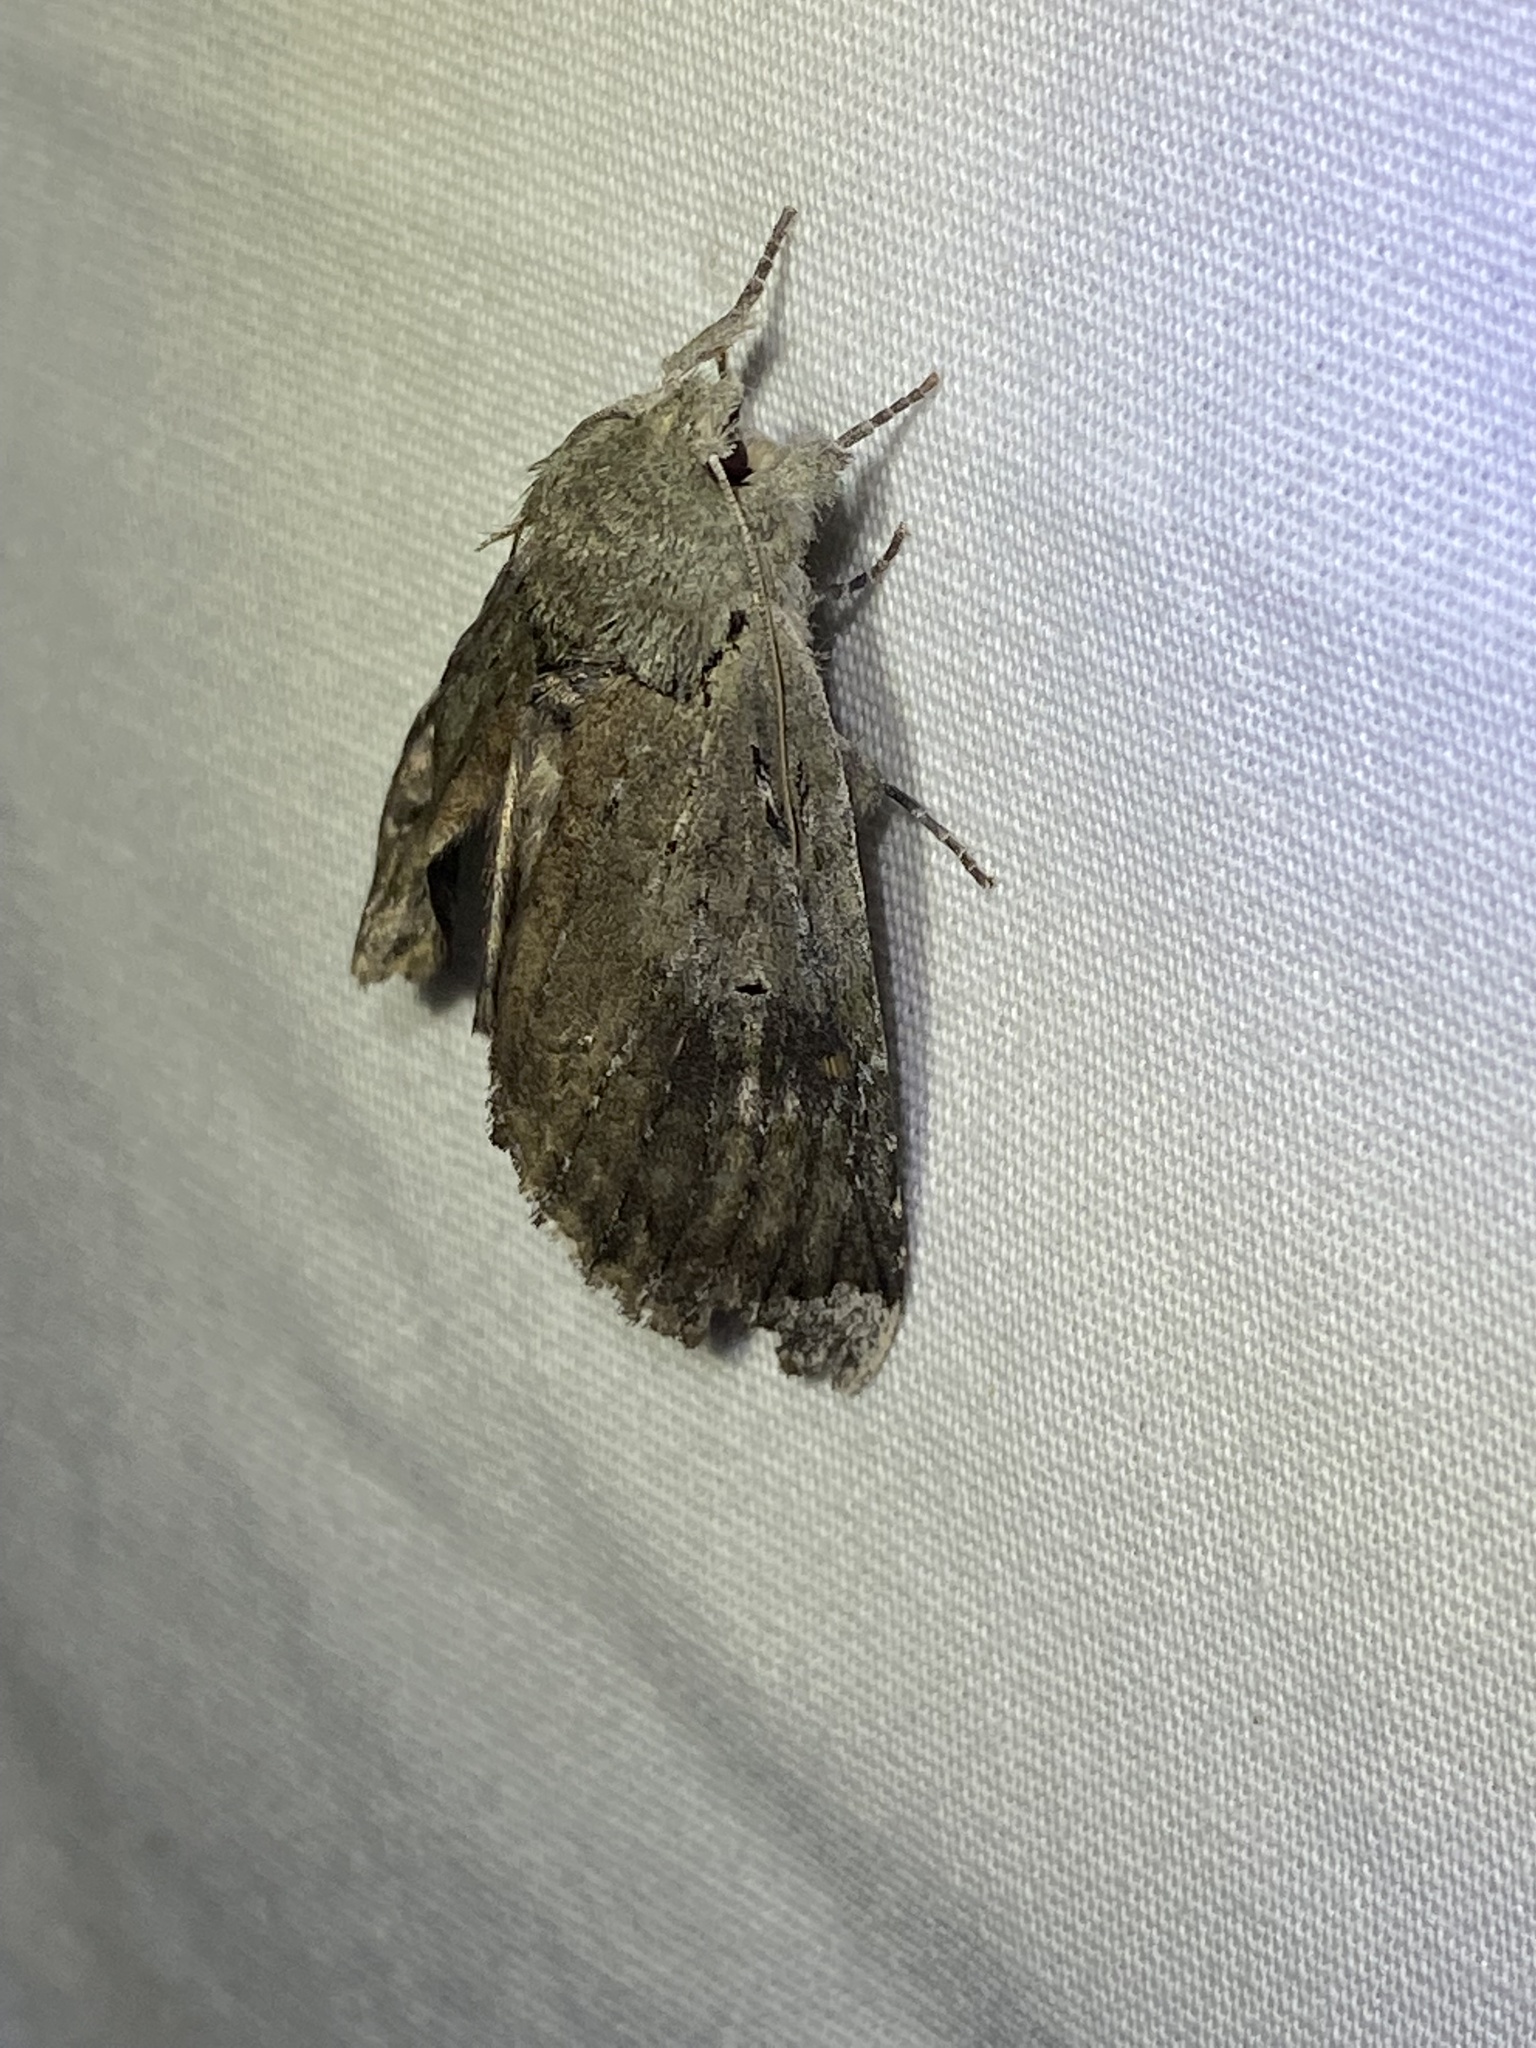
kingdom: Animalia
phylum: Arthropoda
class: Insecta
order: Lepidoptera
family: Notodontidae
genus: Schizura
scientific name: Schizura
